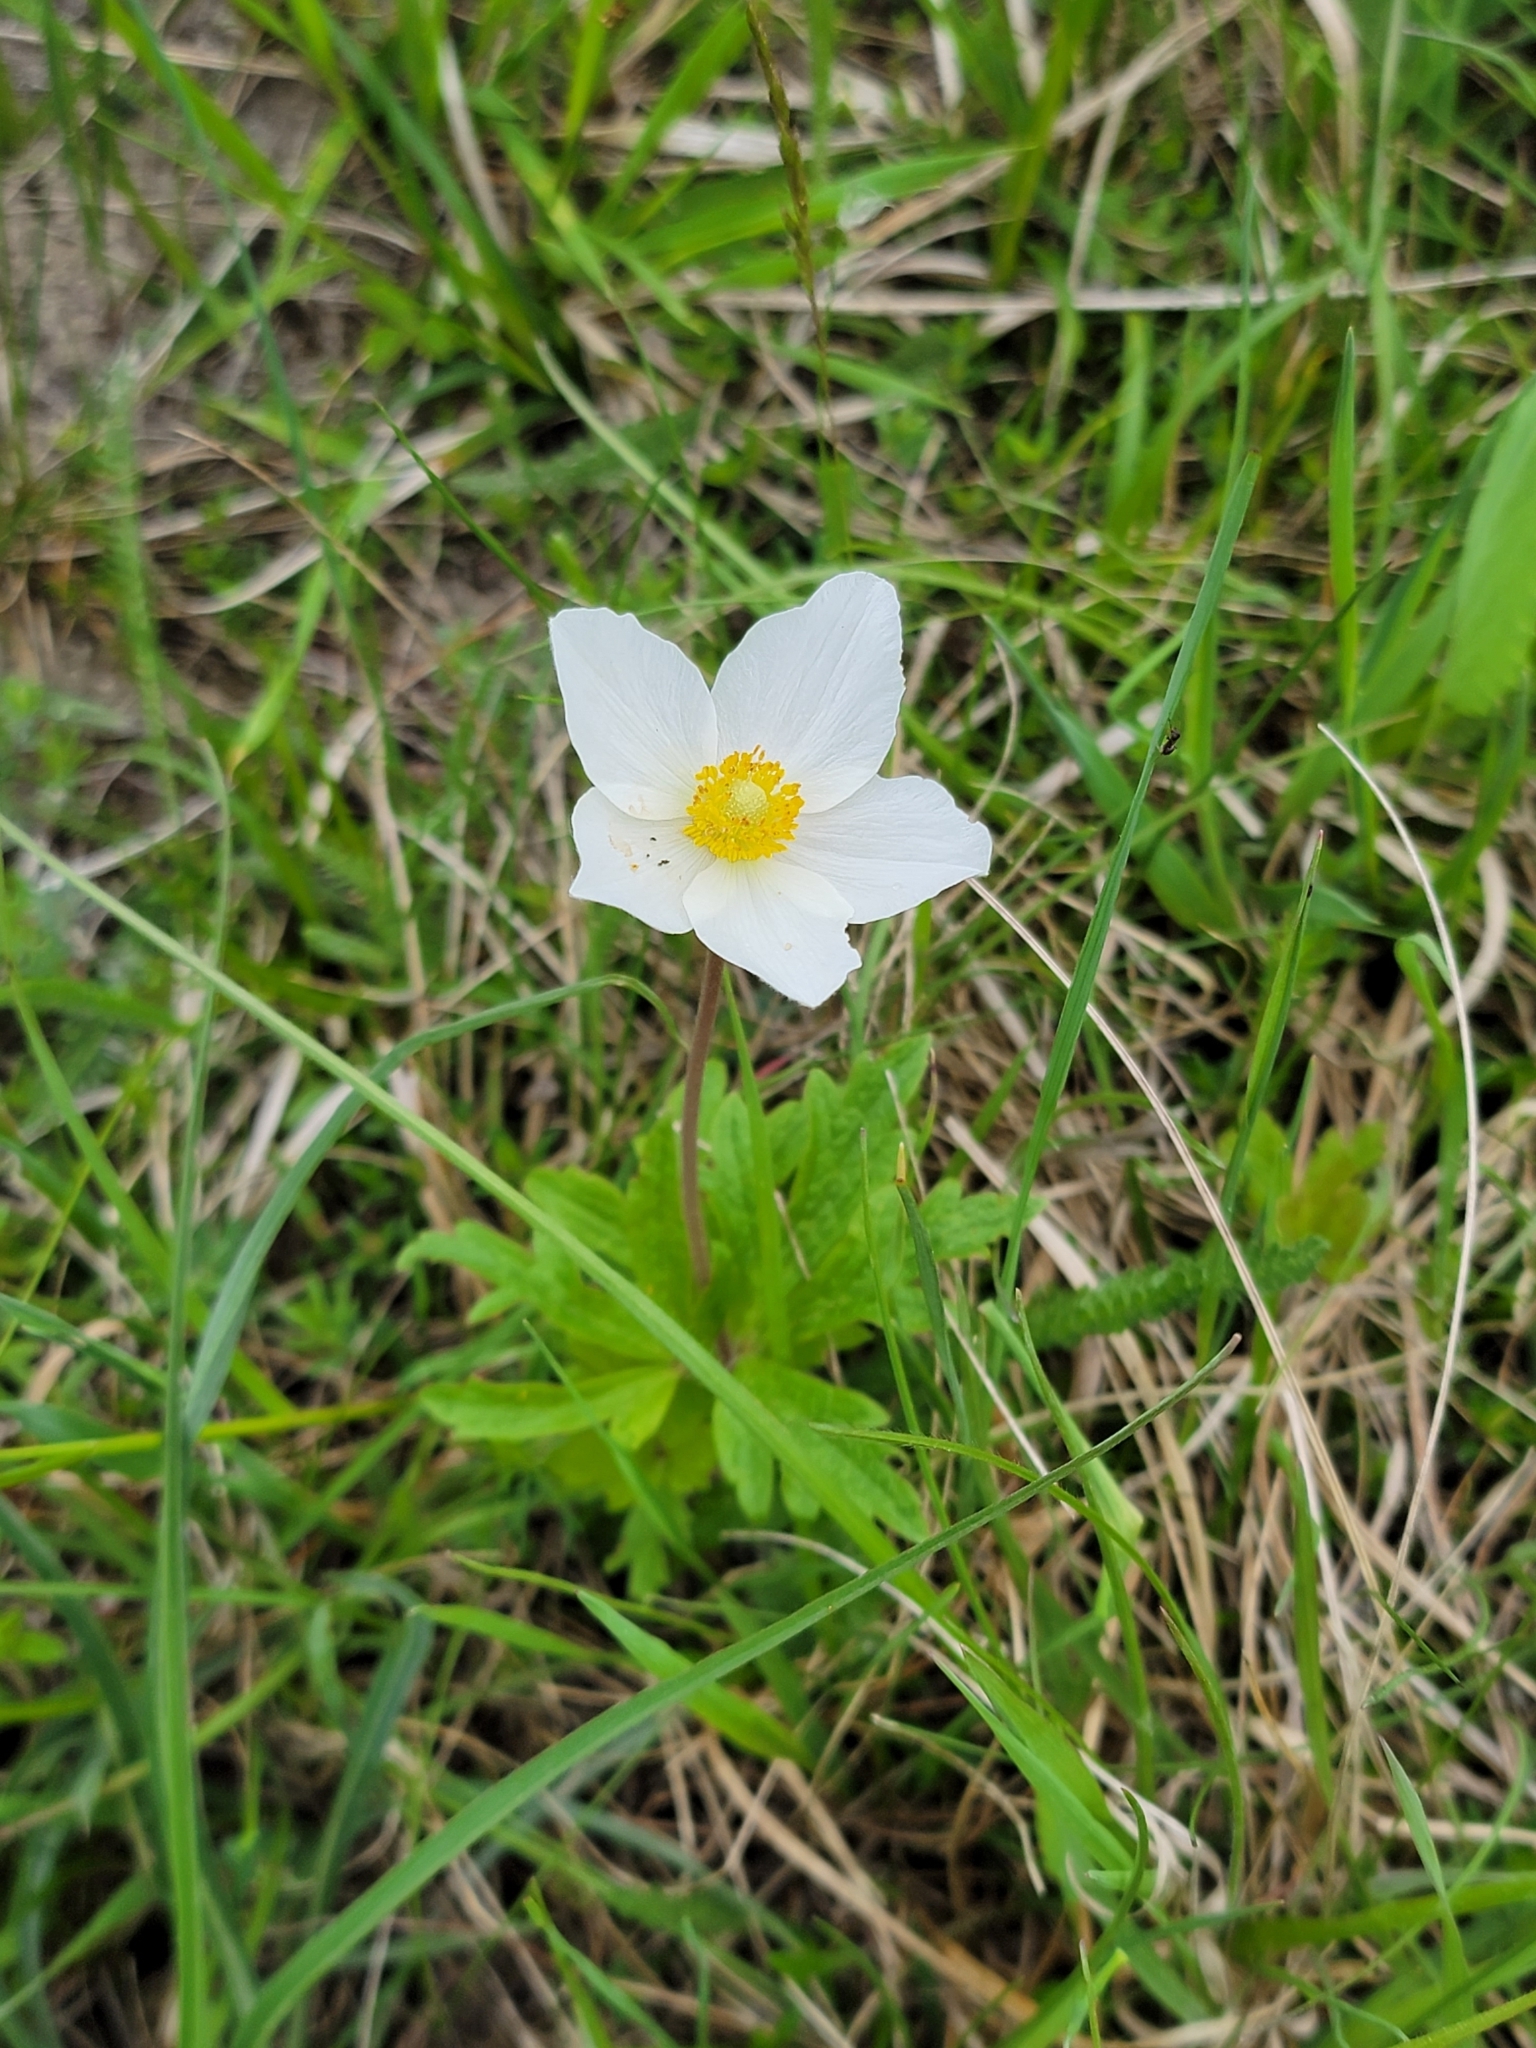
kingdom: Plantae
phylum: Tracheophyta
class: Magnoliopsida
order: Ranunculales
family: Ranunculaceae
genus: Anemone
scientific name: Anemone sylvestris
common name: Snowdrop anemone
